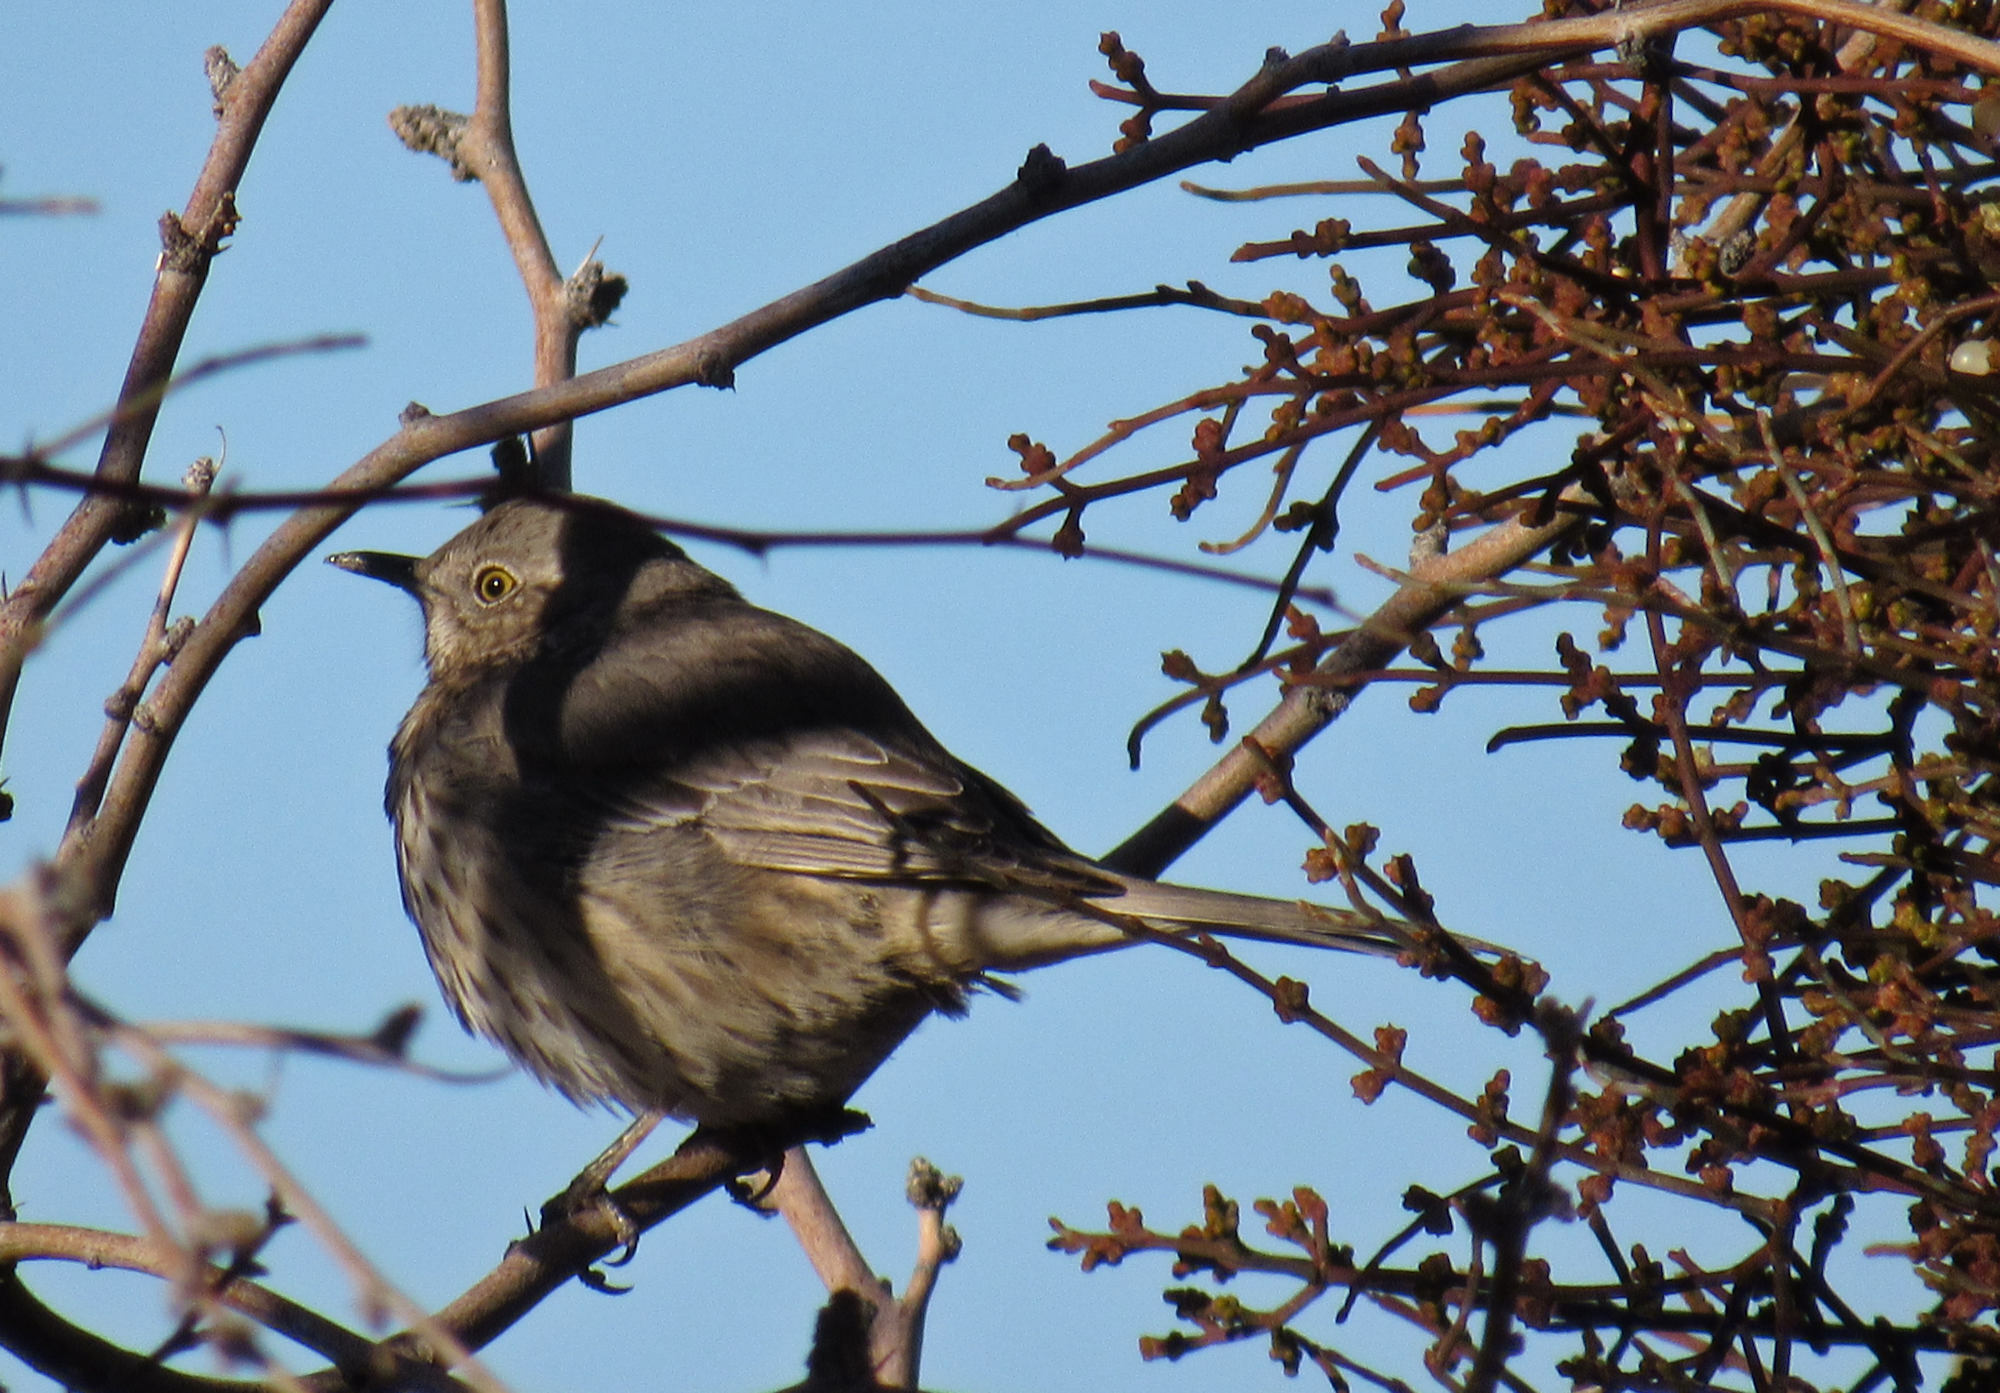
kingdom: Animalia
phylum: Chordata
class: Aves
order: Passeriformes
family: Mimidae
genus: Oreoscoptes
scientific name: Oreoscoptes montanus
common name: Sage thrasher
